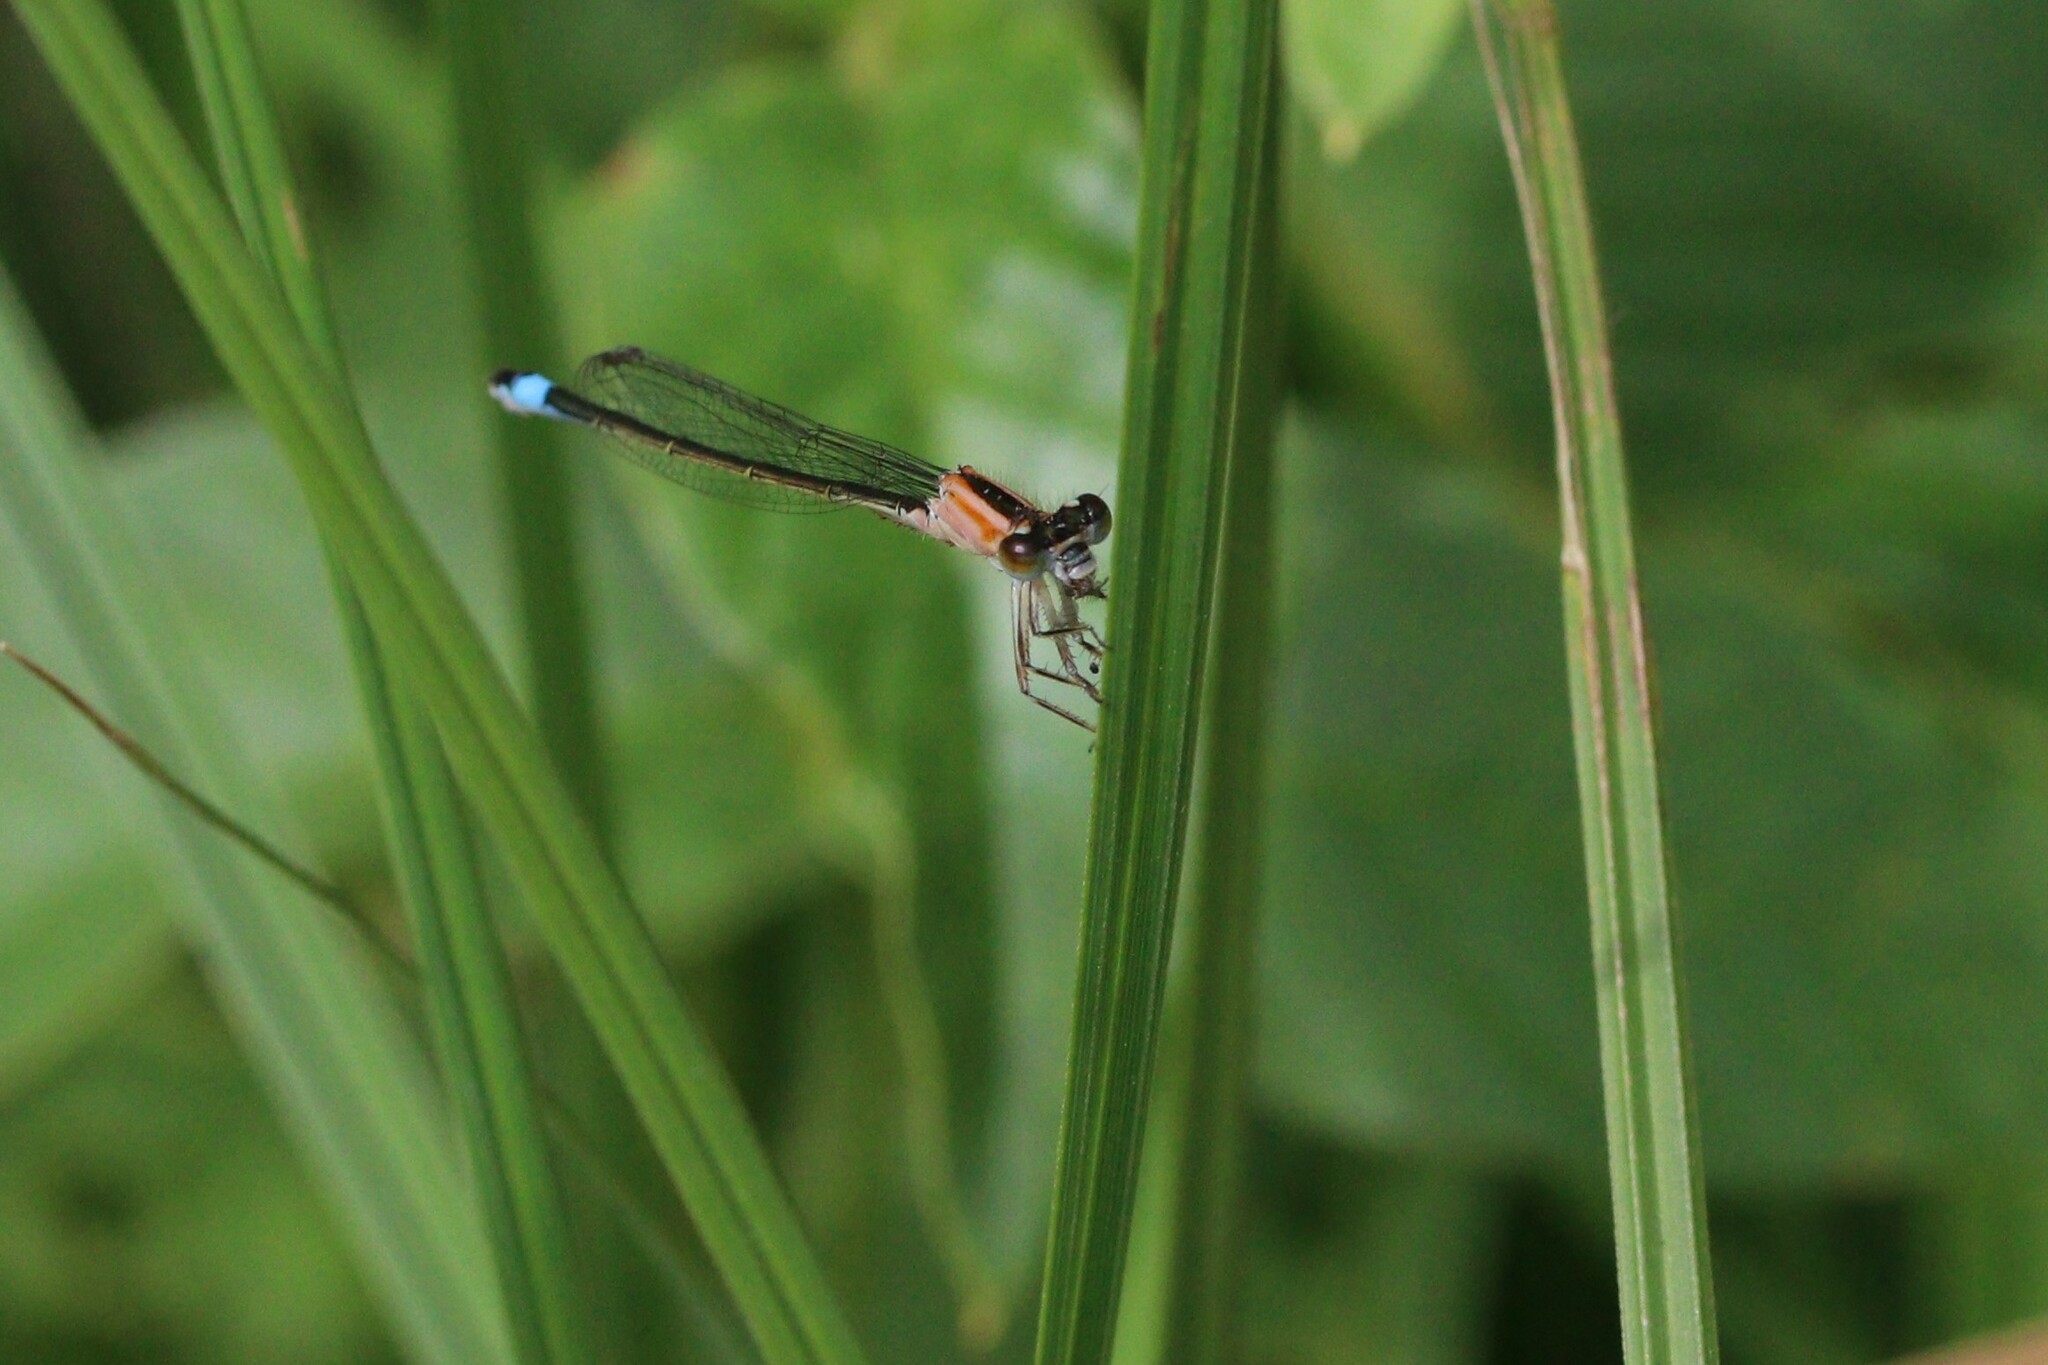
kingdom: Animalia
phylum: Arthropoda
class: Insecta
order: Odonata
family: Coenagrionidae
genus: Ischnura
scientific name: Ischnura elegans
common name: Blue-tailed damselfly
